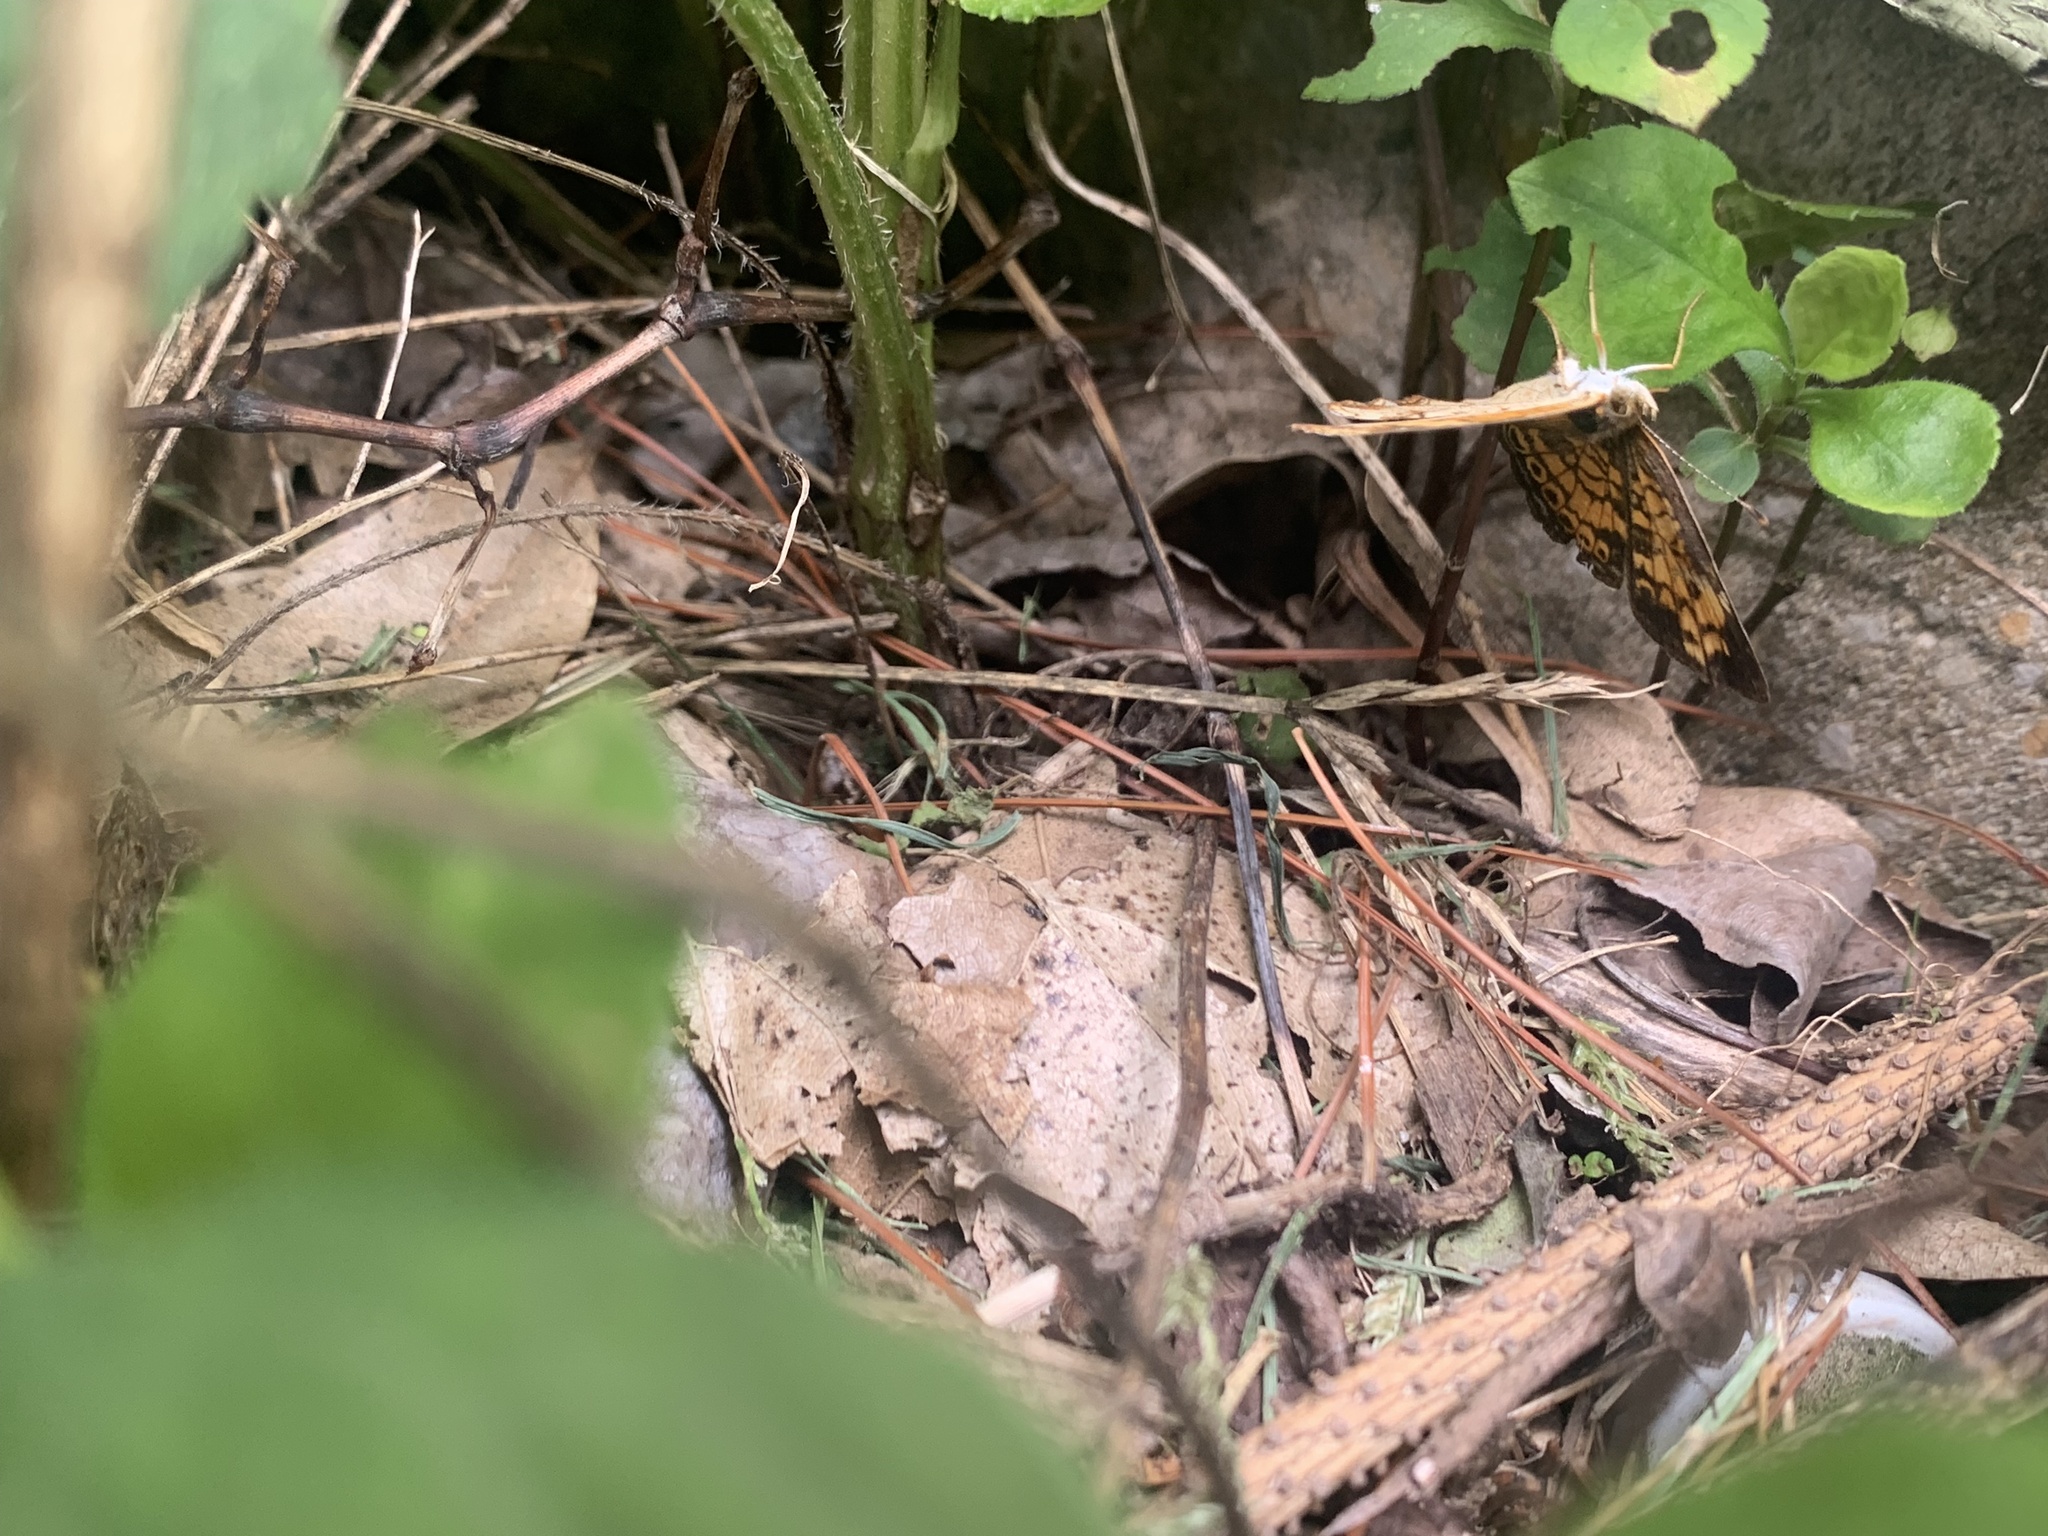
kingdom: Animalia
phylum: Arthropoda
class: Insecta
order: Lepidoptera
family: Nymphalidae
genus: Phyciodes
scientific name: Phyciodes tharos
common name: Pearl crescent
